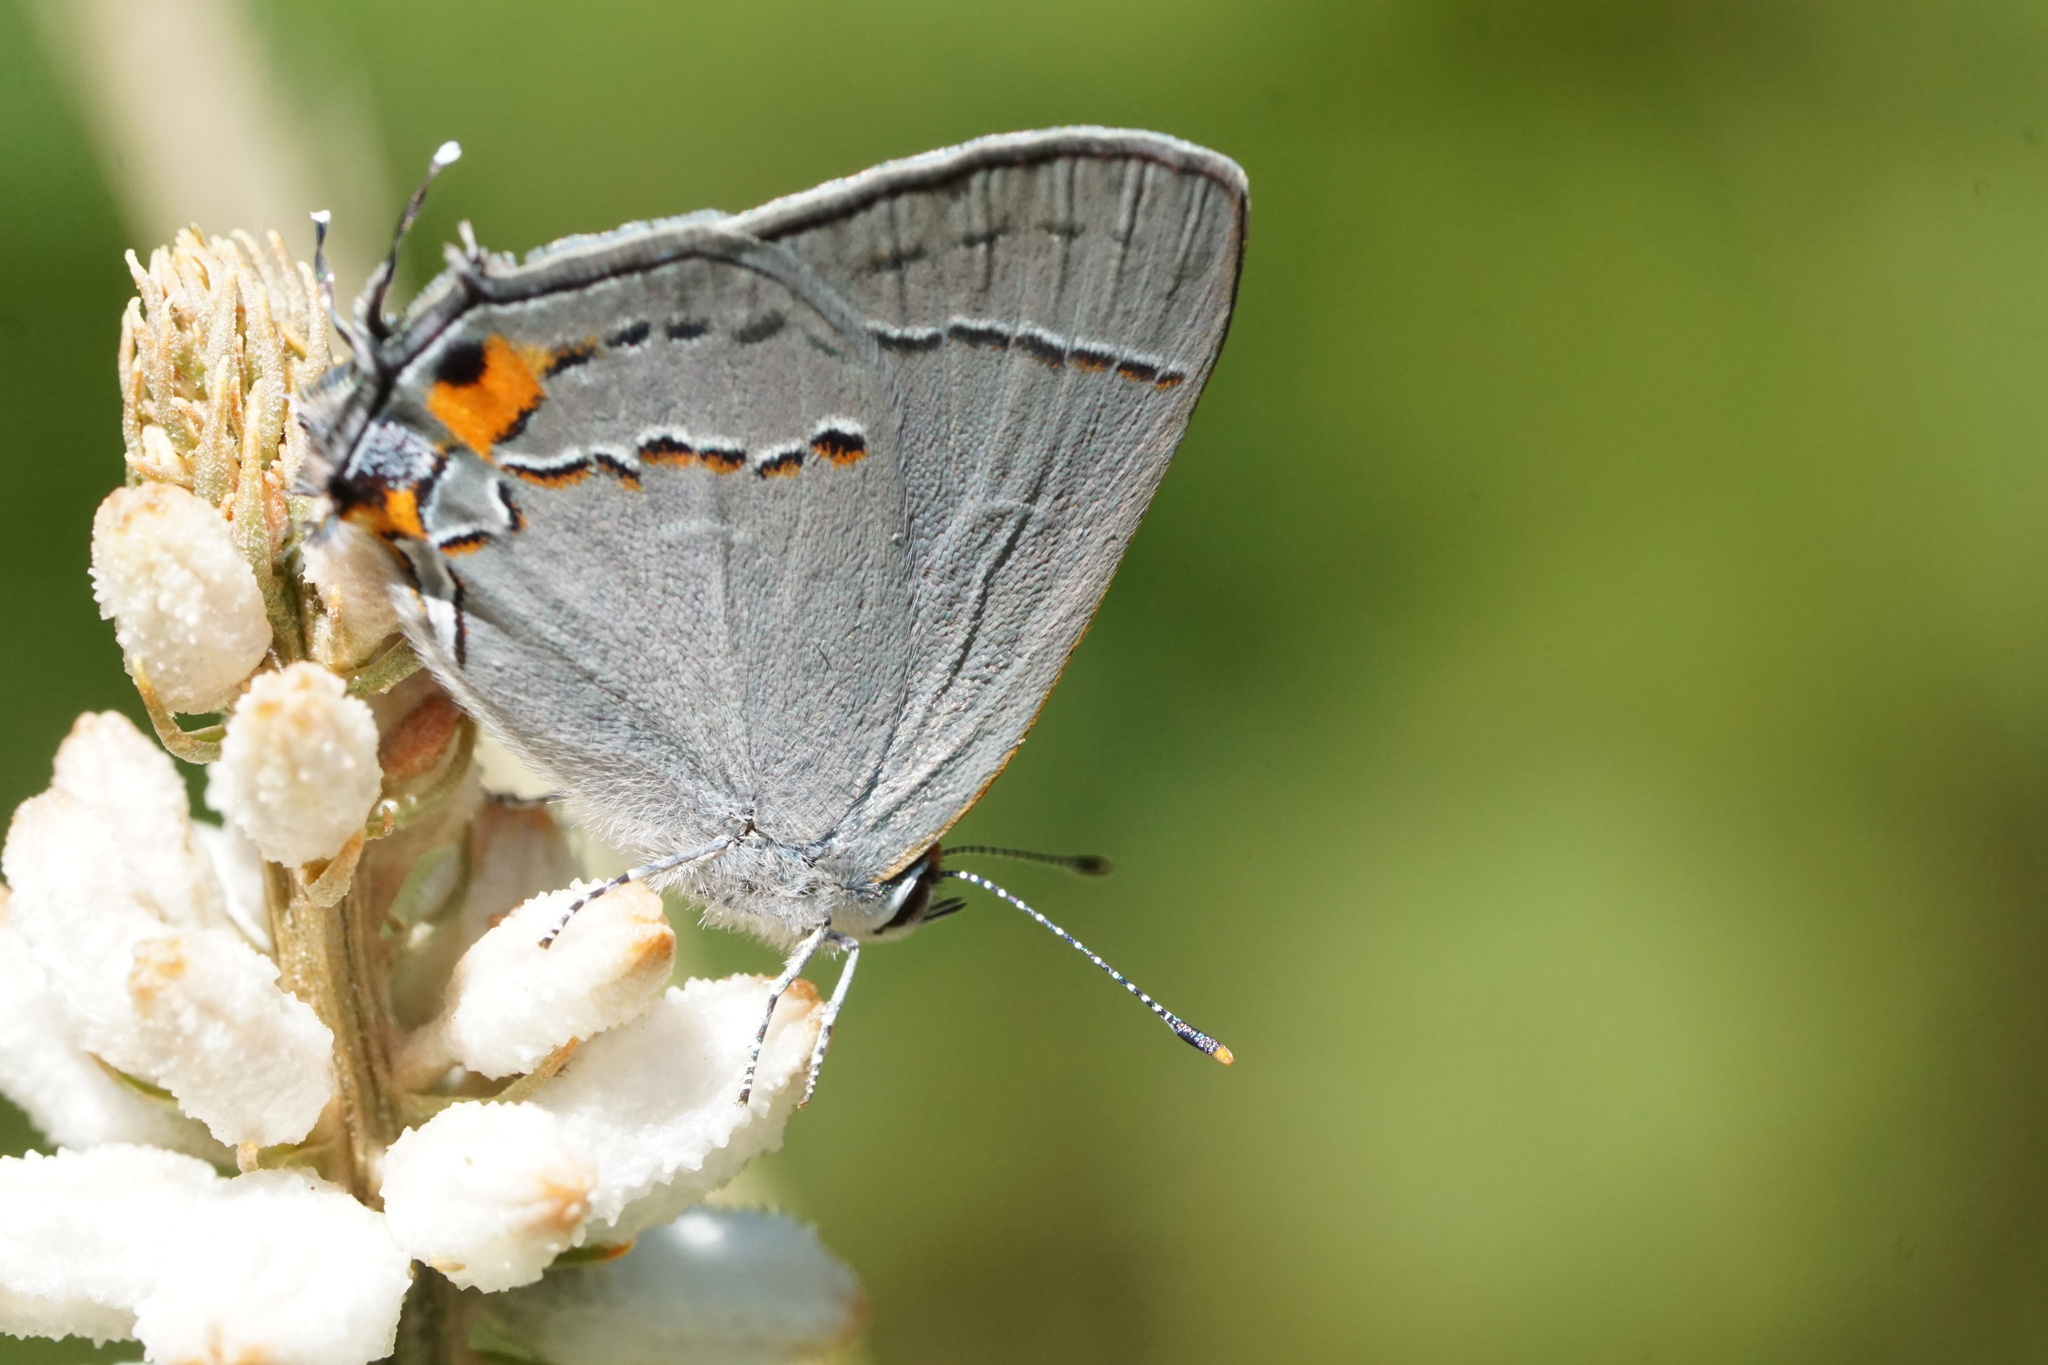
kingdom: Animalia
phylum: Arthropoda
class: Insecta
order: Lepidoptera
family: Lycaenidae
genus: Strymon
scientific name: Strymon melinus
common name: Gray hairstreak
